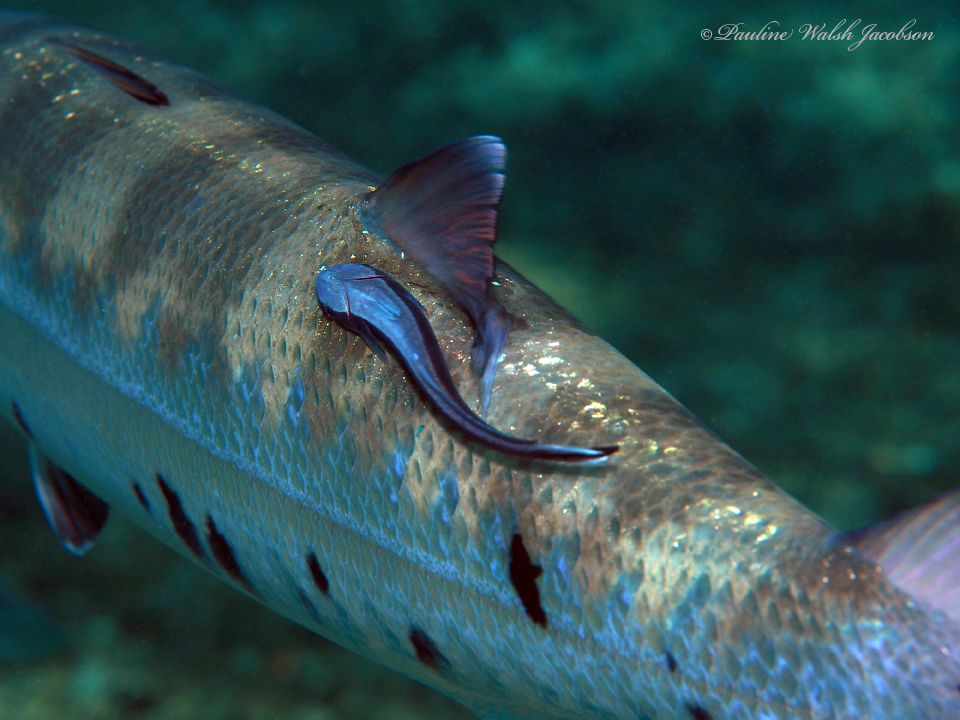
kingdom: Animalia
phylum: Chordata
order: Perciformes
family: Echeneidae
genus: Echeneis
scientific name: Echeneis naucrates
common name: Sharksucker
